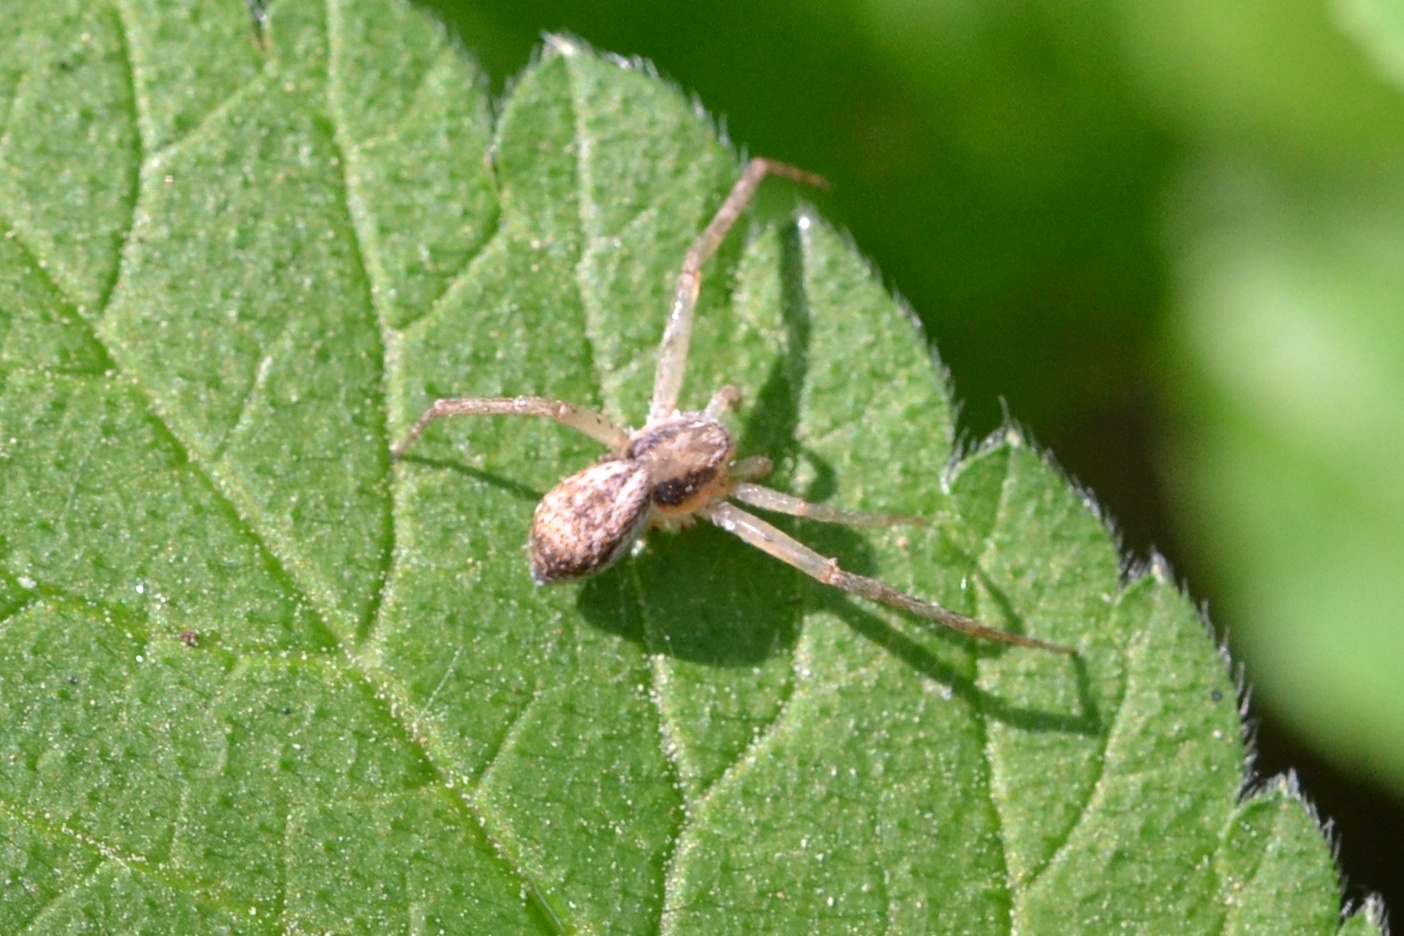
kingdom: Animalia
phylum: Arthropoda
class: Arachnida
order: Araneae
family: Philodromidae
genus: Philodromus
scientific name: Philodromus dispar
